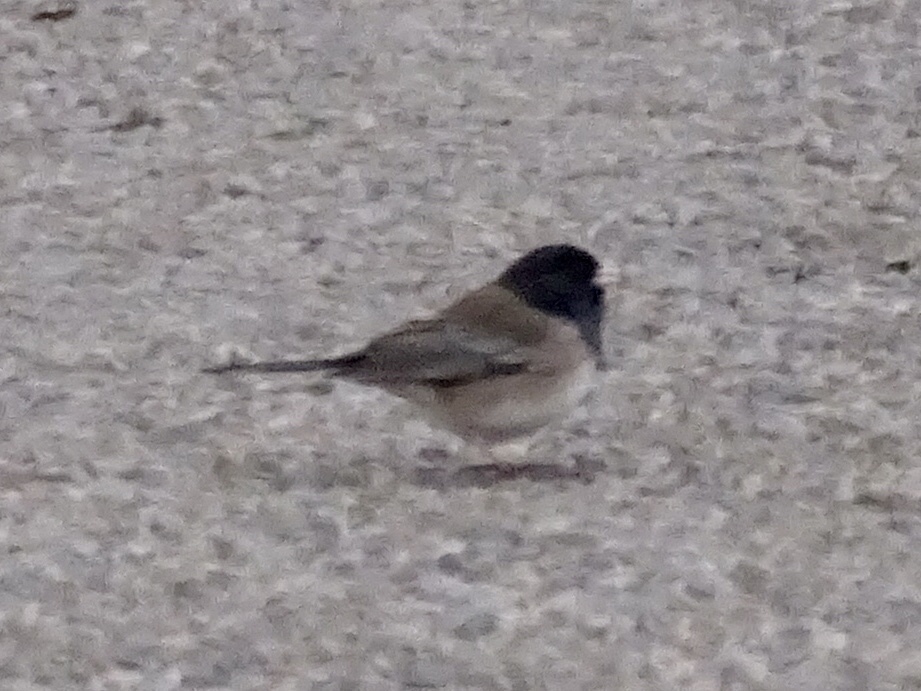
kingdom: Animalia
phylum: Chordata
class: Aves
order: Passeriformes
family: Passerellidae
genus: Junco
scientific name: Junco hyemalis
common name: Dark-eyed junco
